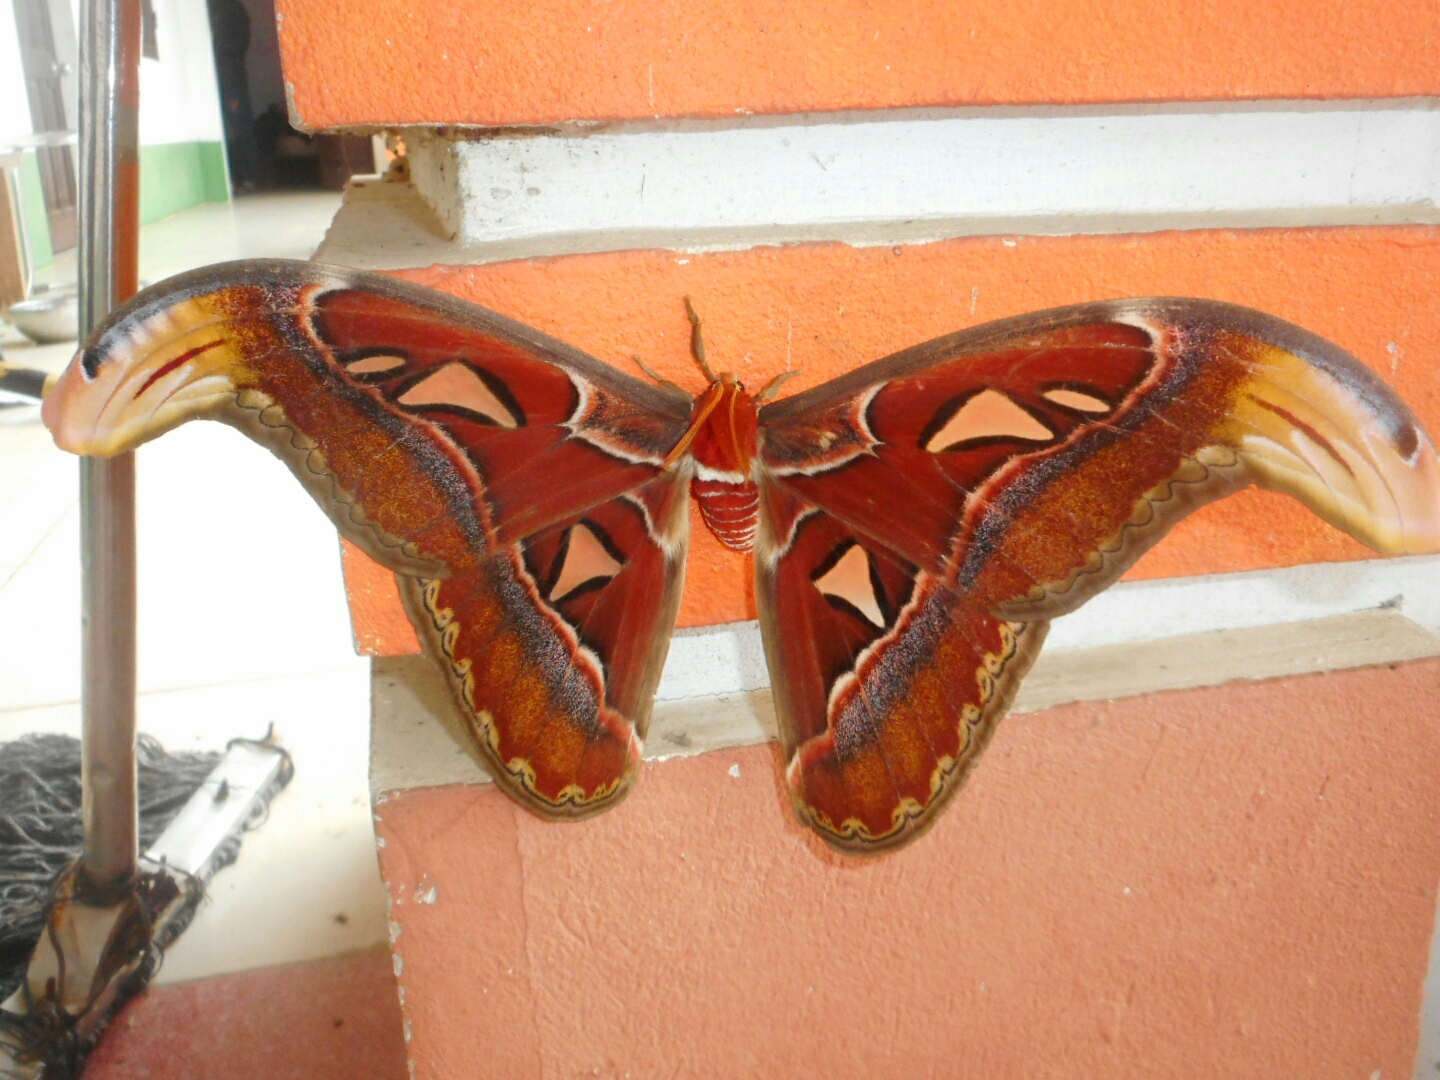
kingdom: Animalia
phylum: Arthropoda
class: Insecta
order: Lepidoptera
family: Saturniidae
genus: Attacus
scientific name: Attacus atlas
